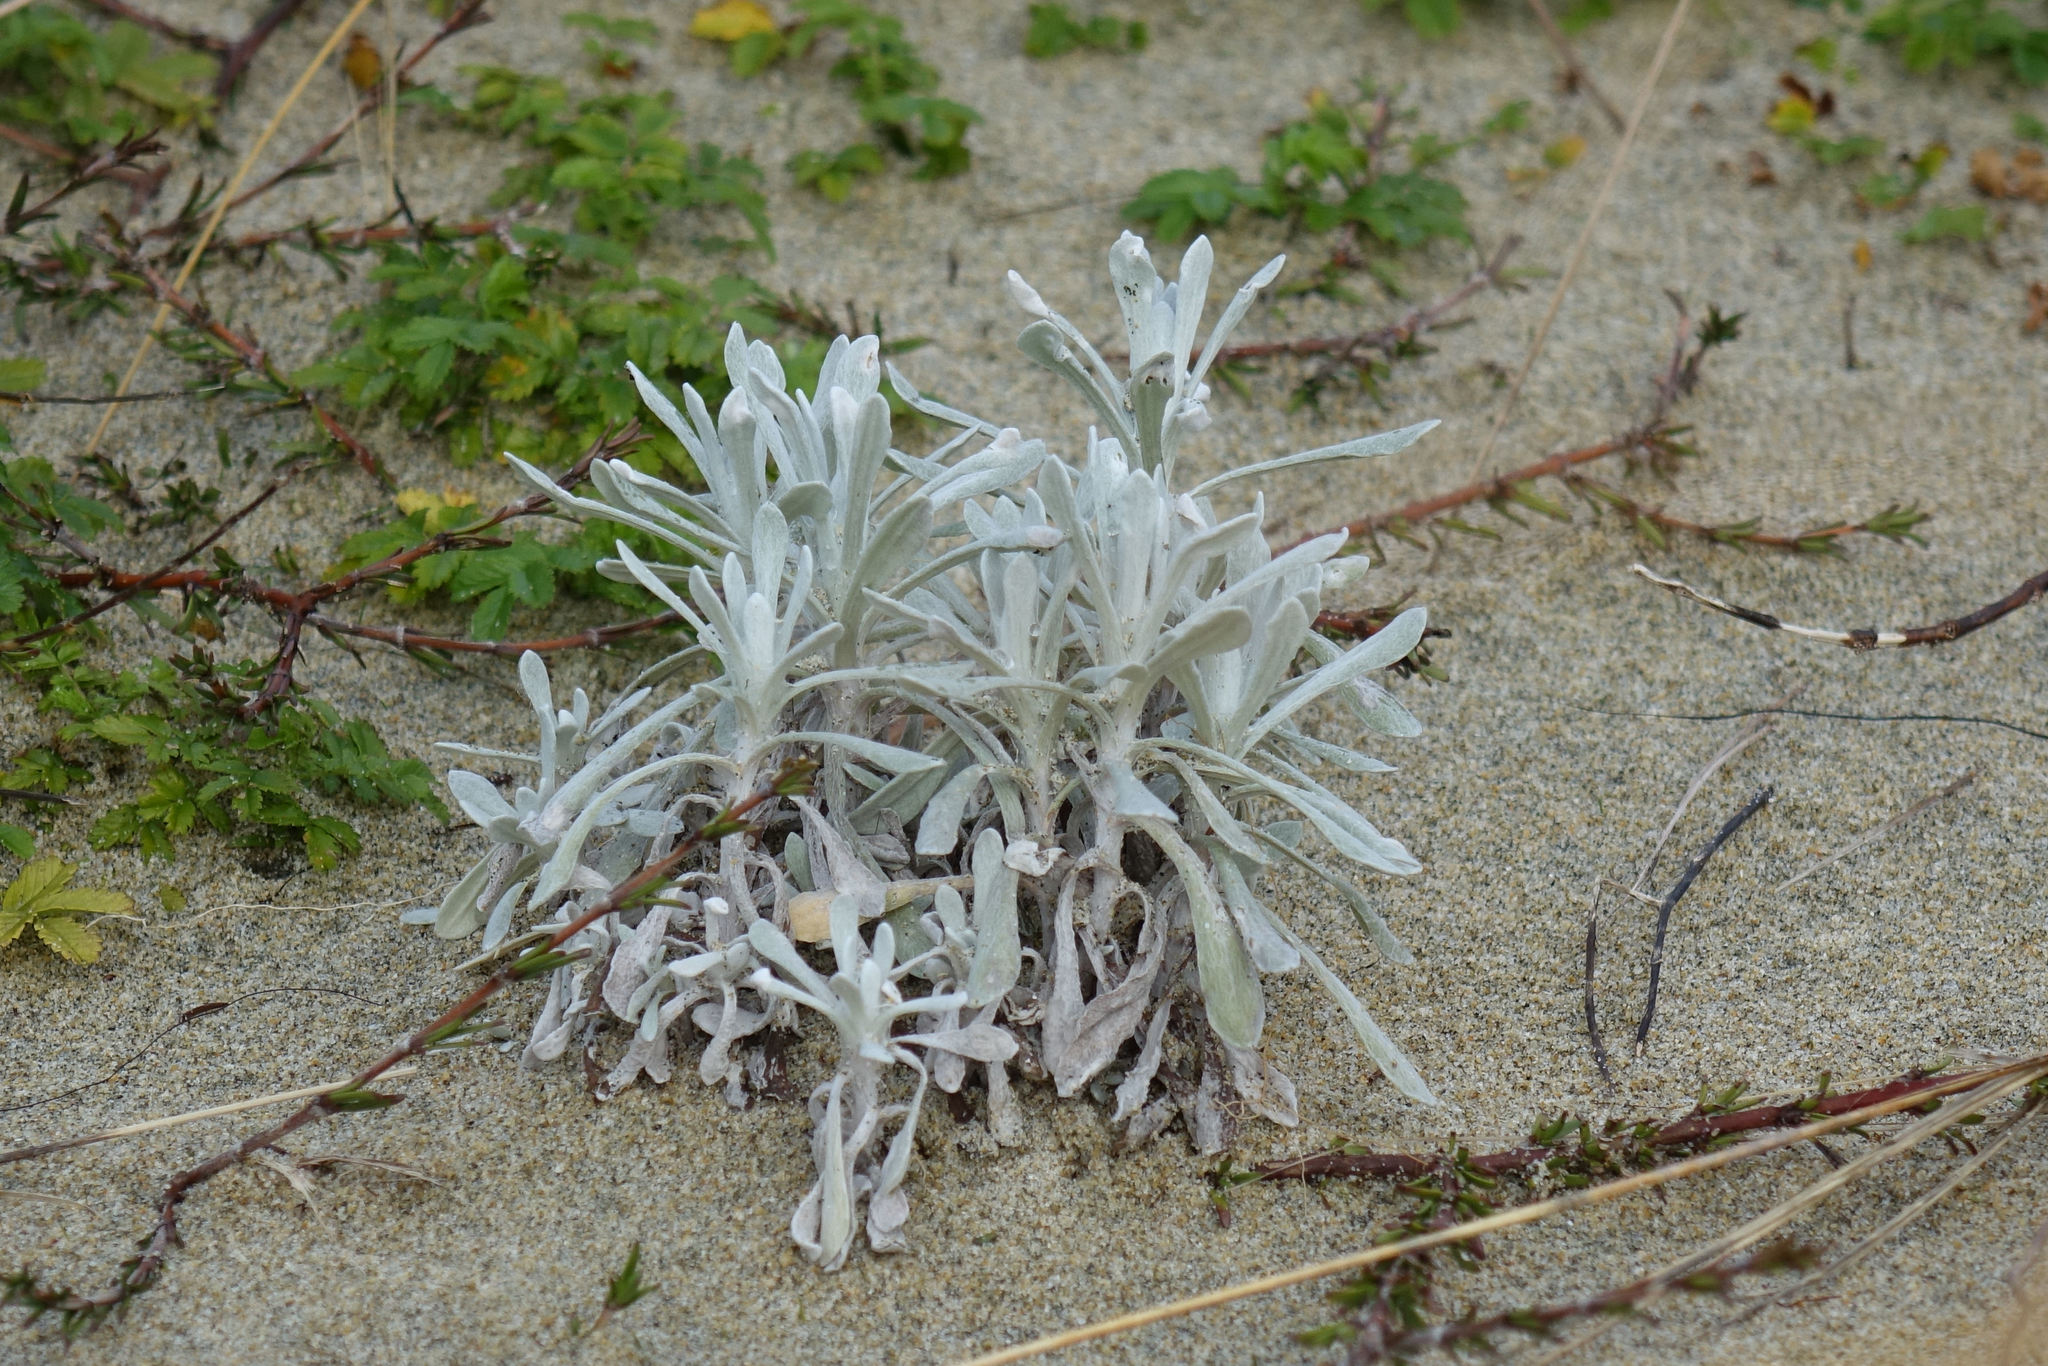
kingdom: Plantae
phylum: Tracheophyta
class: Magnoliopsida
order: Asterales
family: Asteraceae
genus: Helichrysum
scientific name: Helichrysum luteoalbum
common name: Daisy
